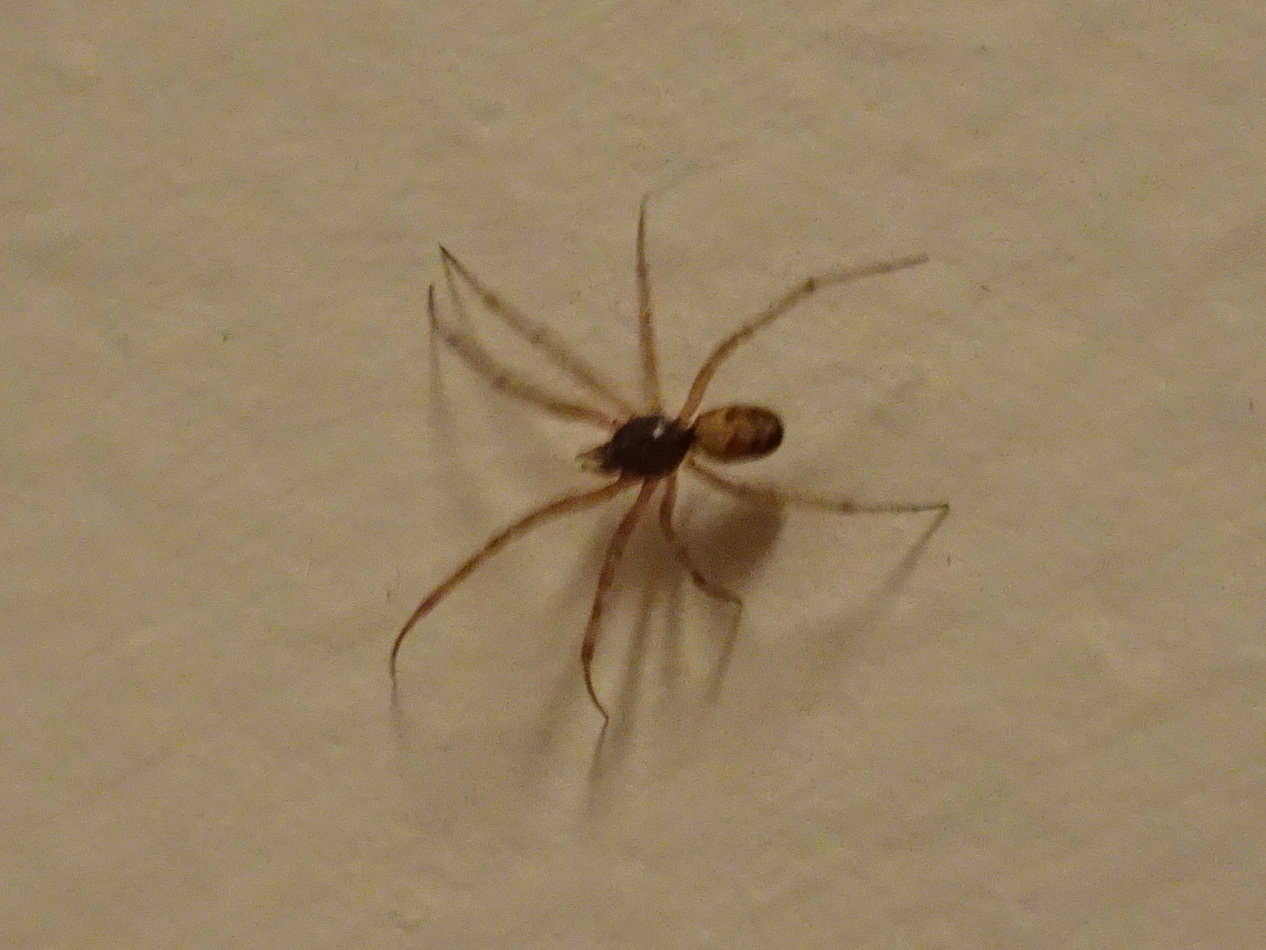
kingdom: Animalia
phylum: Arthropoda
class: Arachnida
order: Araneae
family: Theridiidae
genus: Steatoda
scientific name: Steatoda triangulosa
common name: Triangulate bud spider
